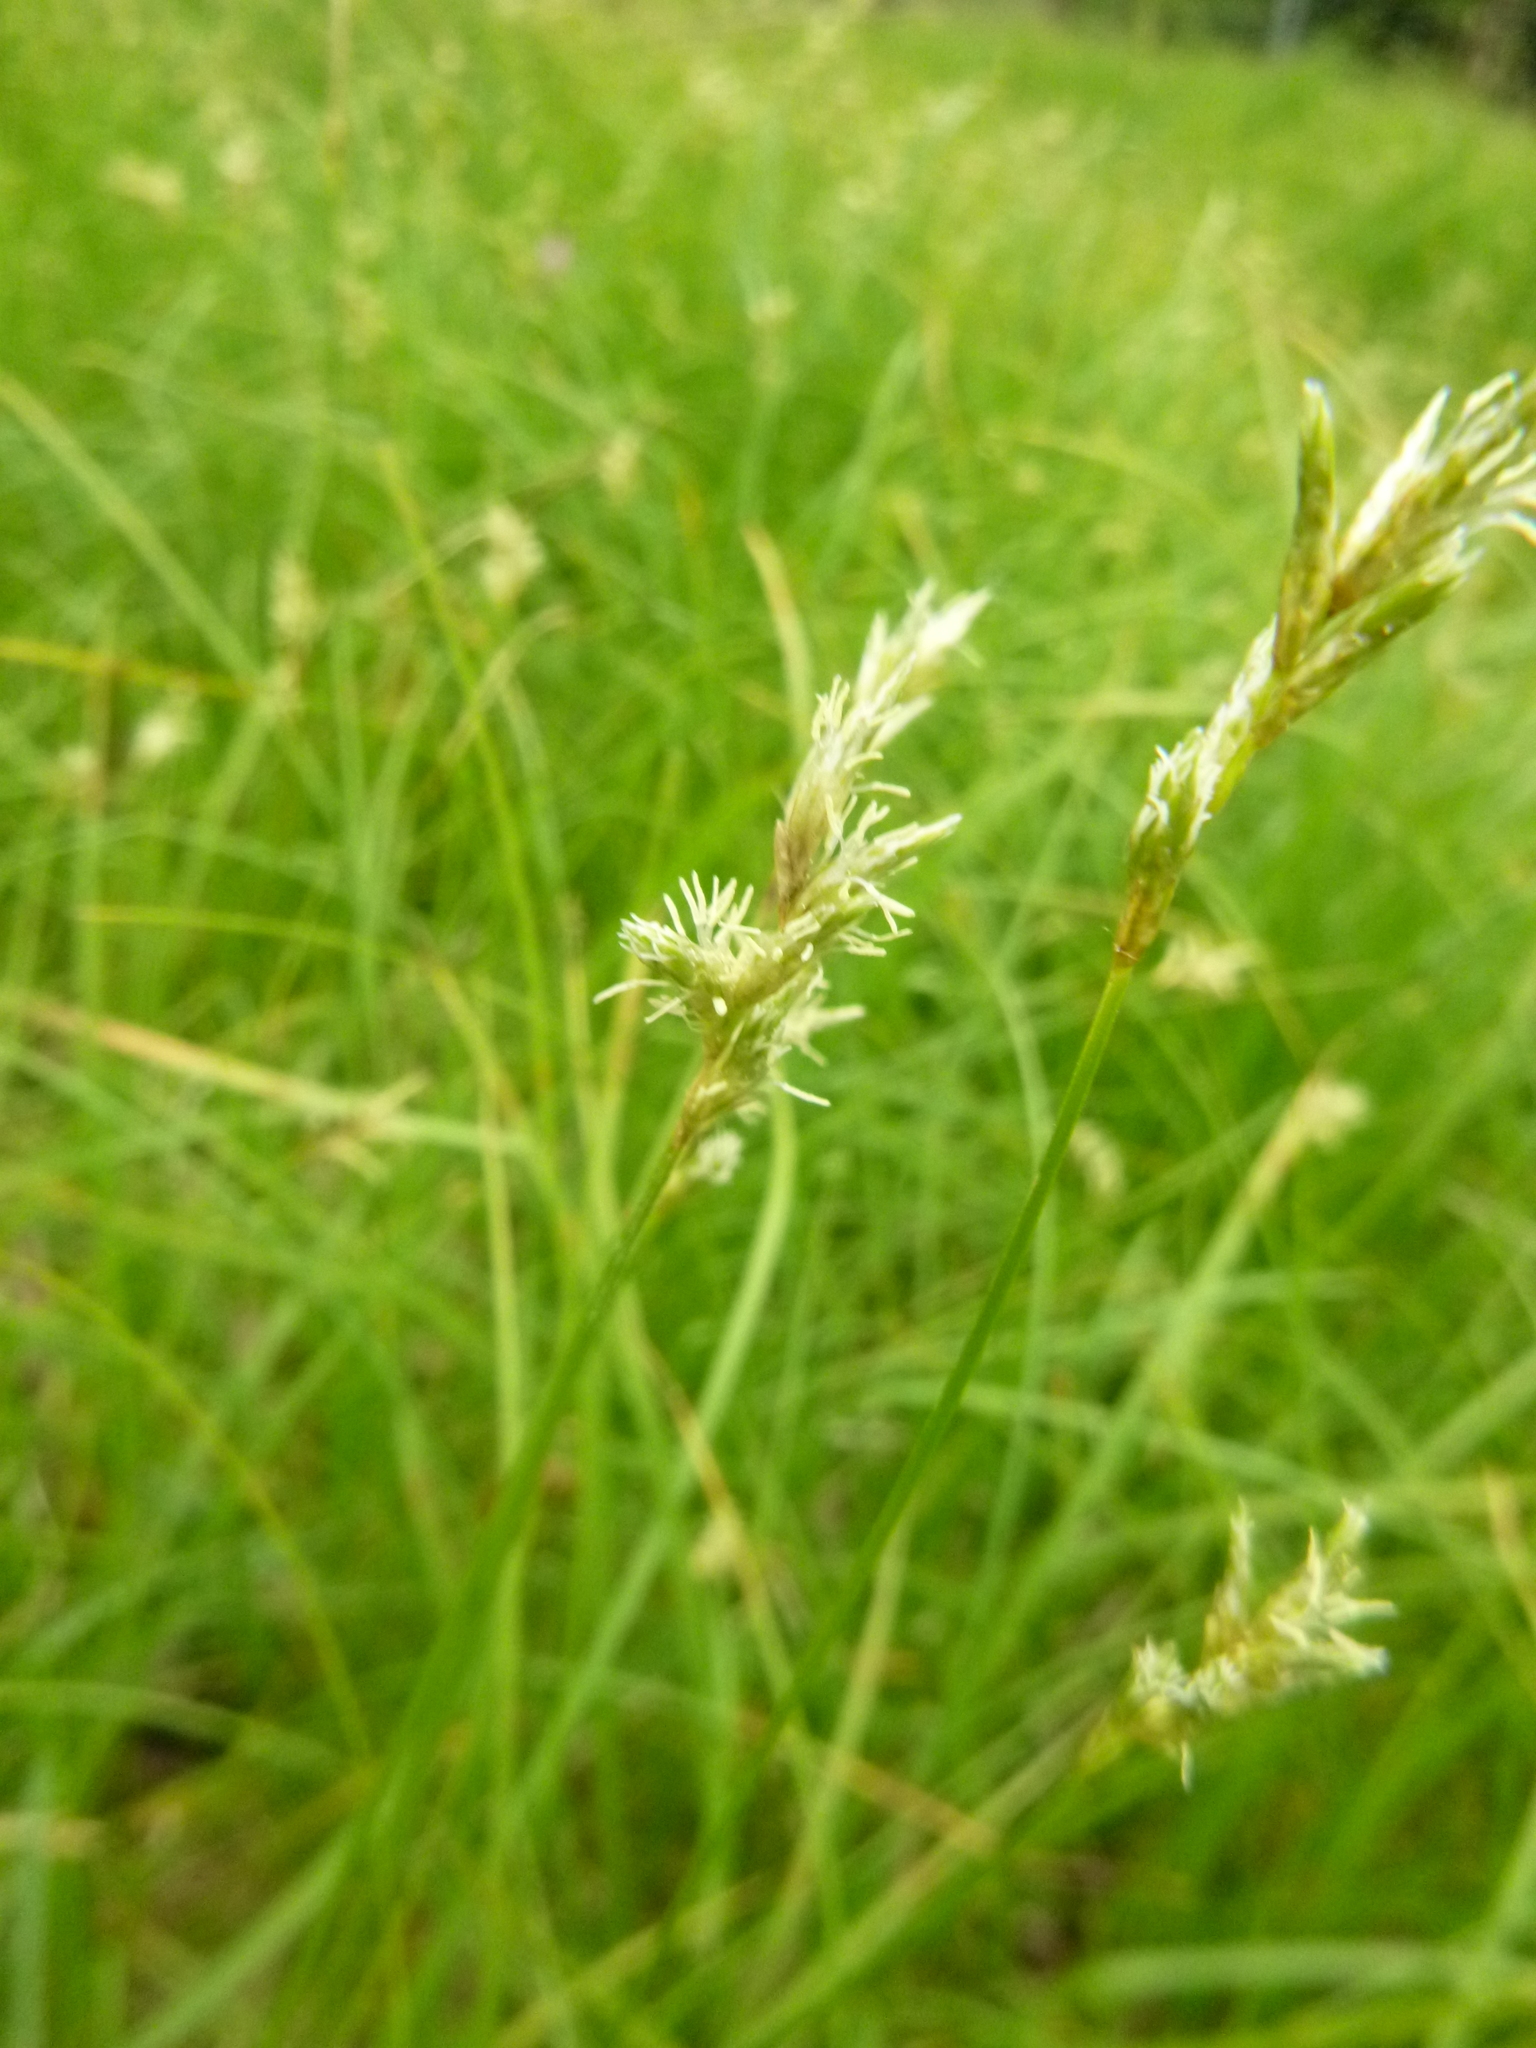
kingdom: Plantae
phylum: Tracheophyta
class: Liliopsida
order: Poales
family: Cyperaceae
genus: Carex
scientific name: Carex brizoides
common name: Quaking-grass sedge
